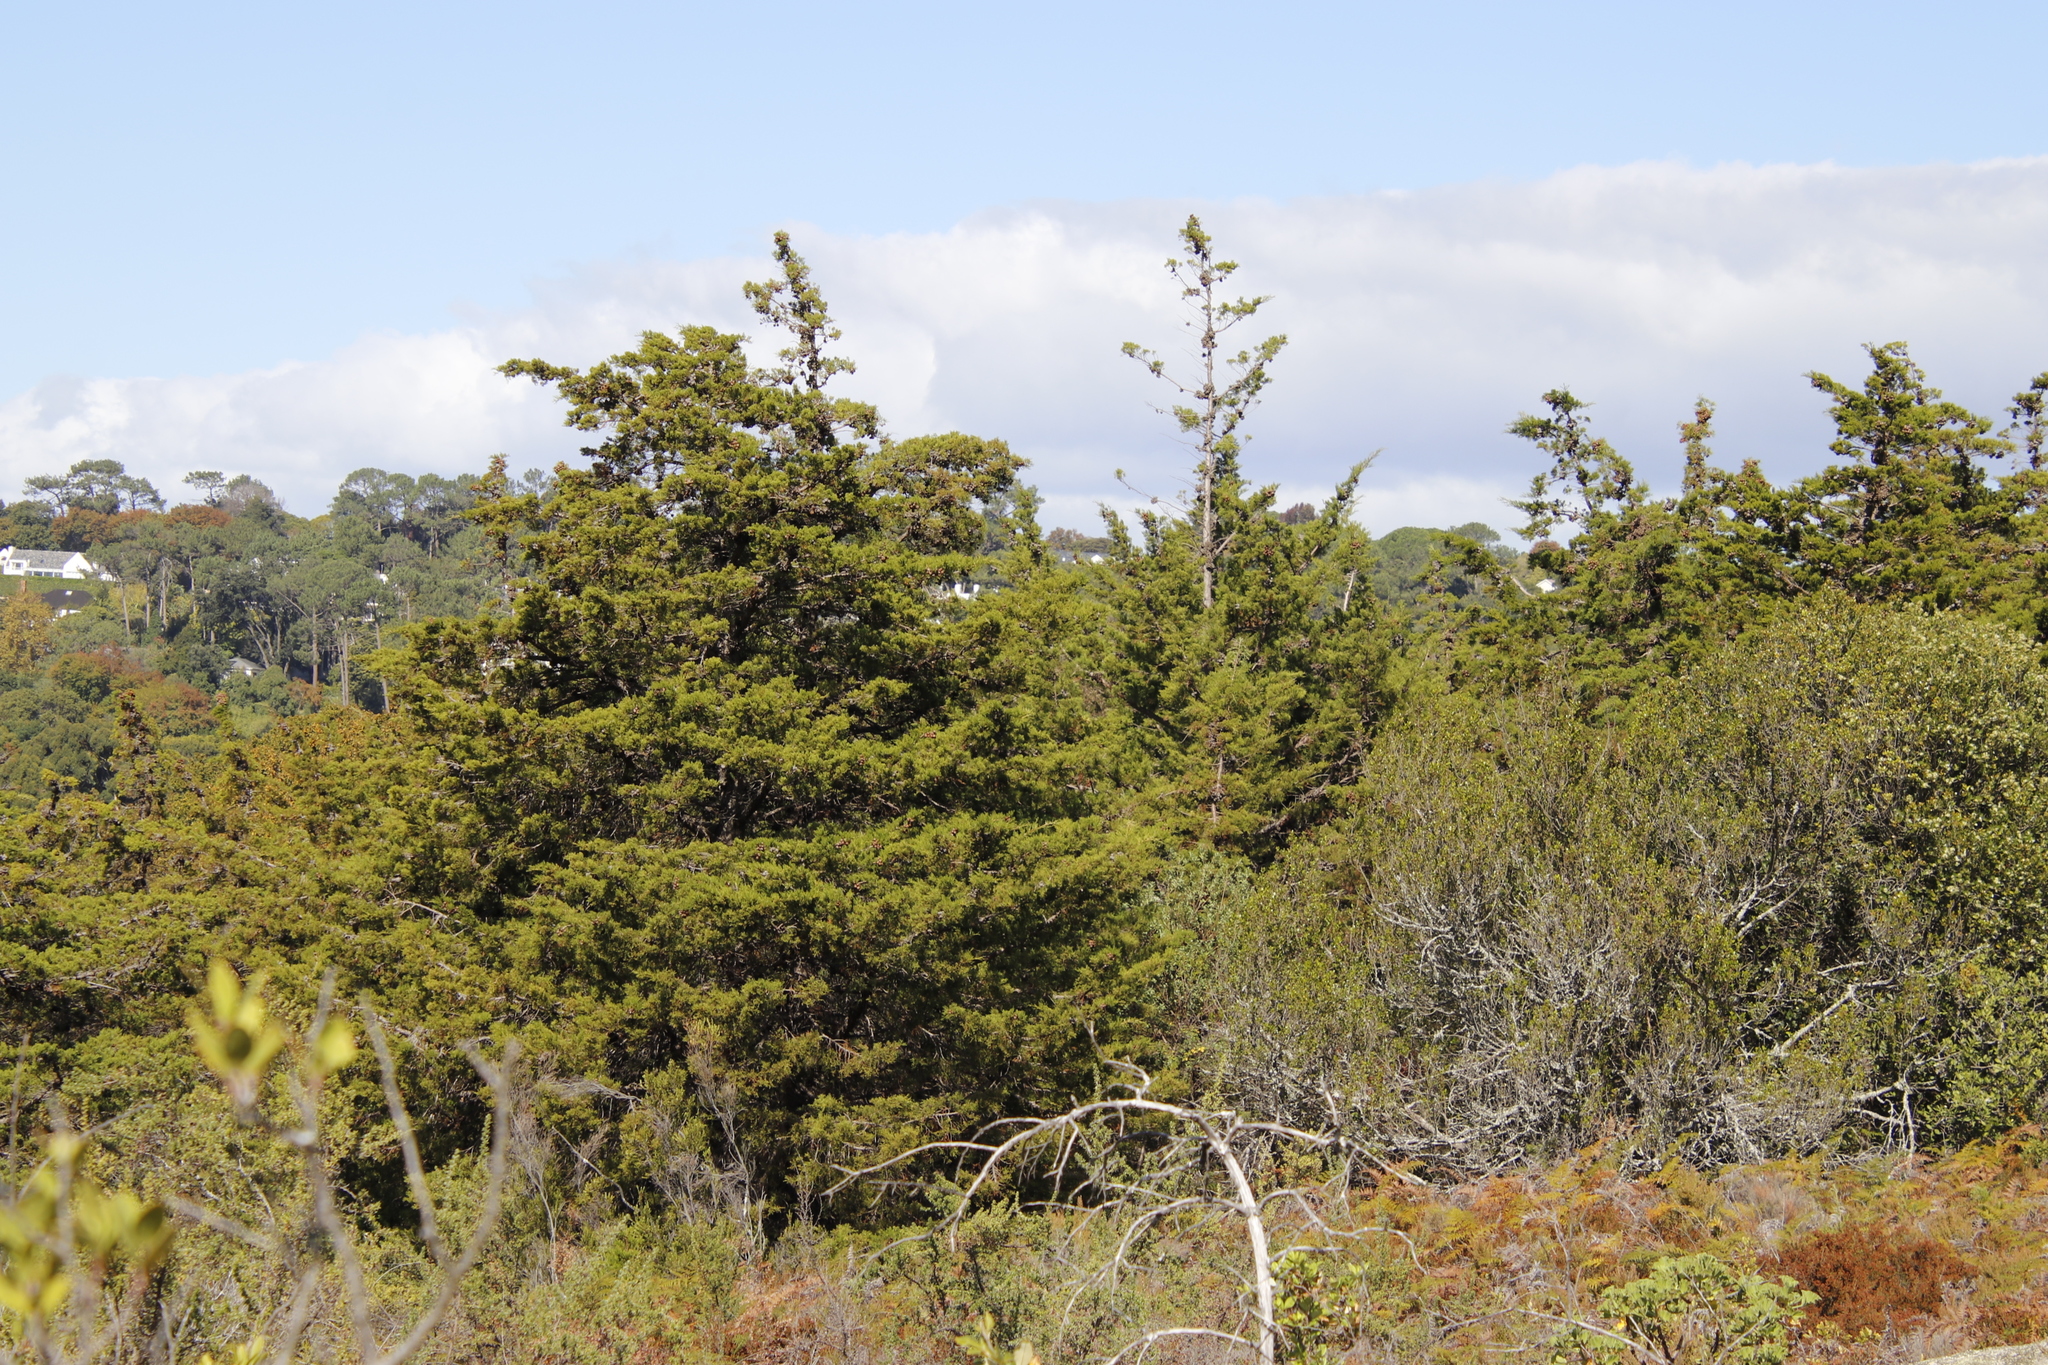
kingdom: Plantae
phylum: Tracheophyta
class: Pinopsida
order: Pinales
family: Cupressaceae
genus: Widdringtonia
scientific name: Widdringtonia schwarzii
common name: Baviaans cedar
